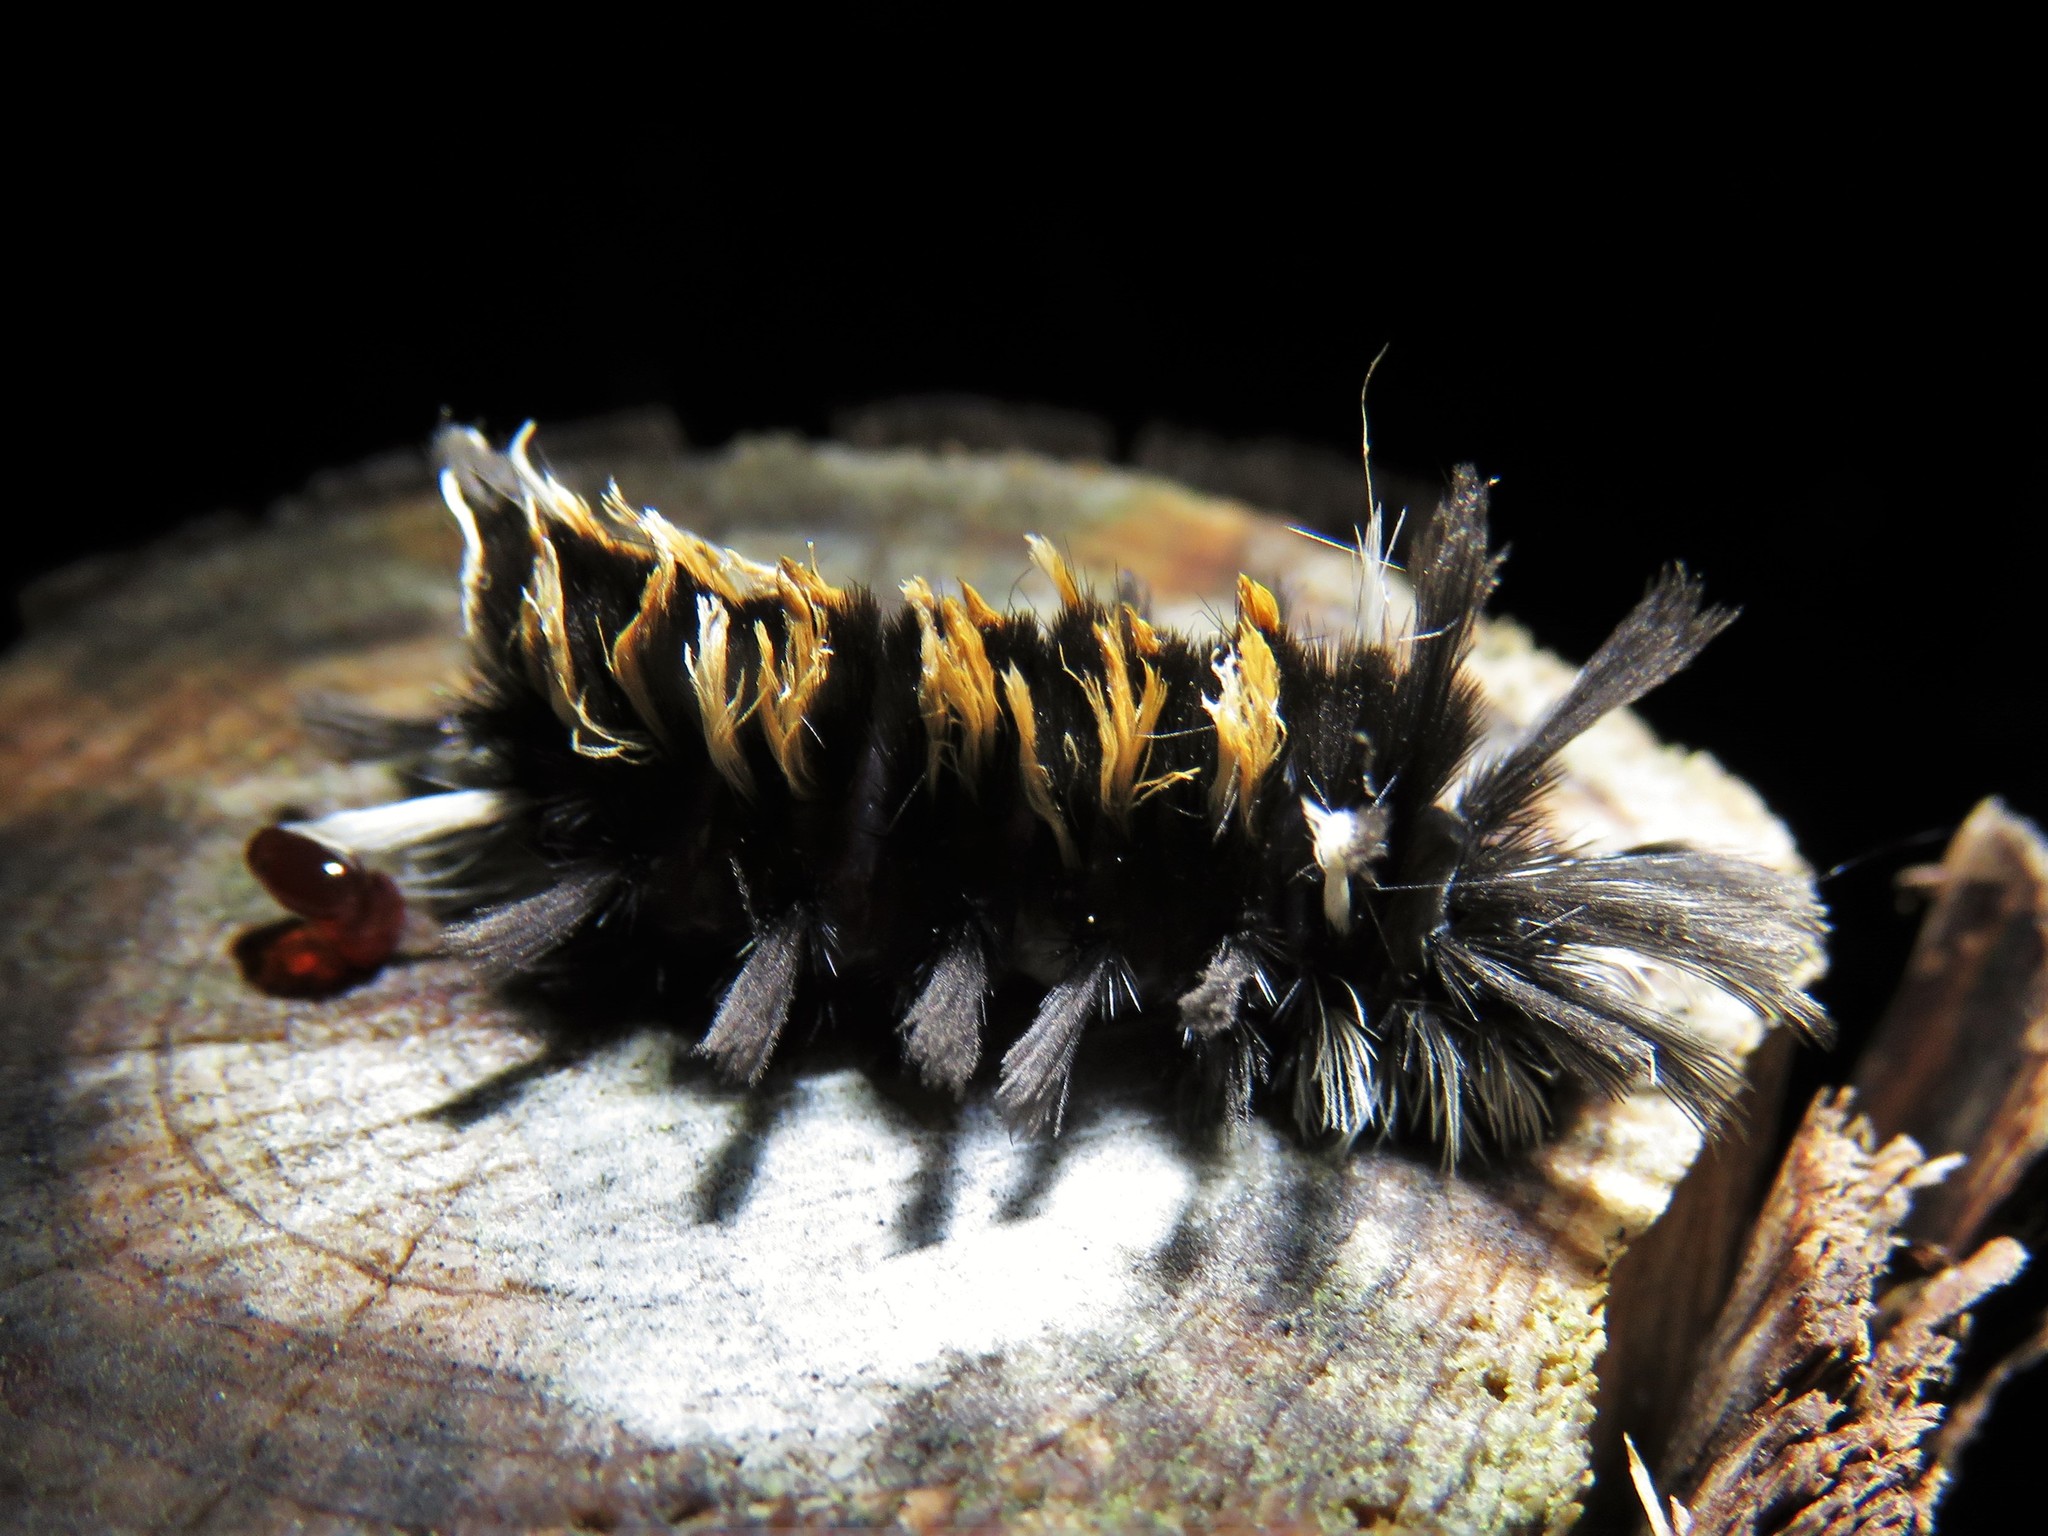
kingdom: Animalia
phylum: Arthropoda
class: Insecta
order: Lepidoptera
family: Erebidae
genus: Euchaetes
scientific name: Euchaetes egle
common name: Milkweed tussock moth
